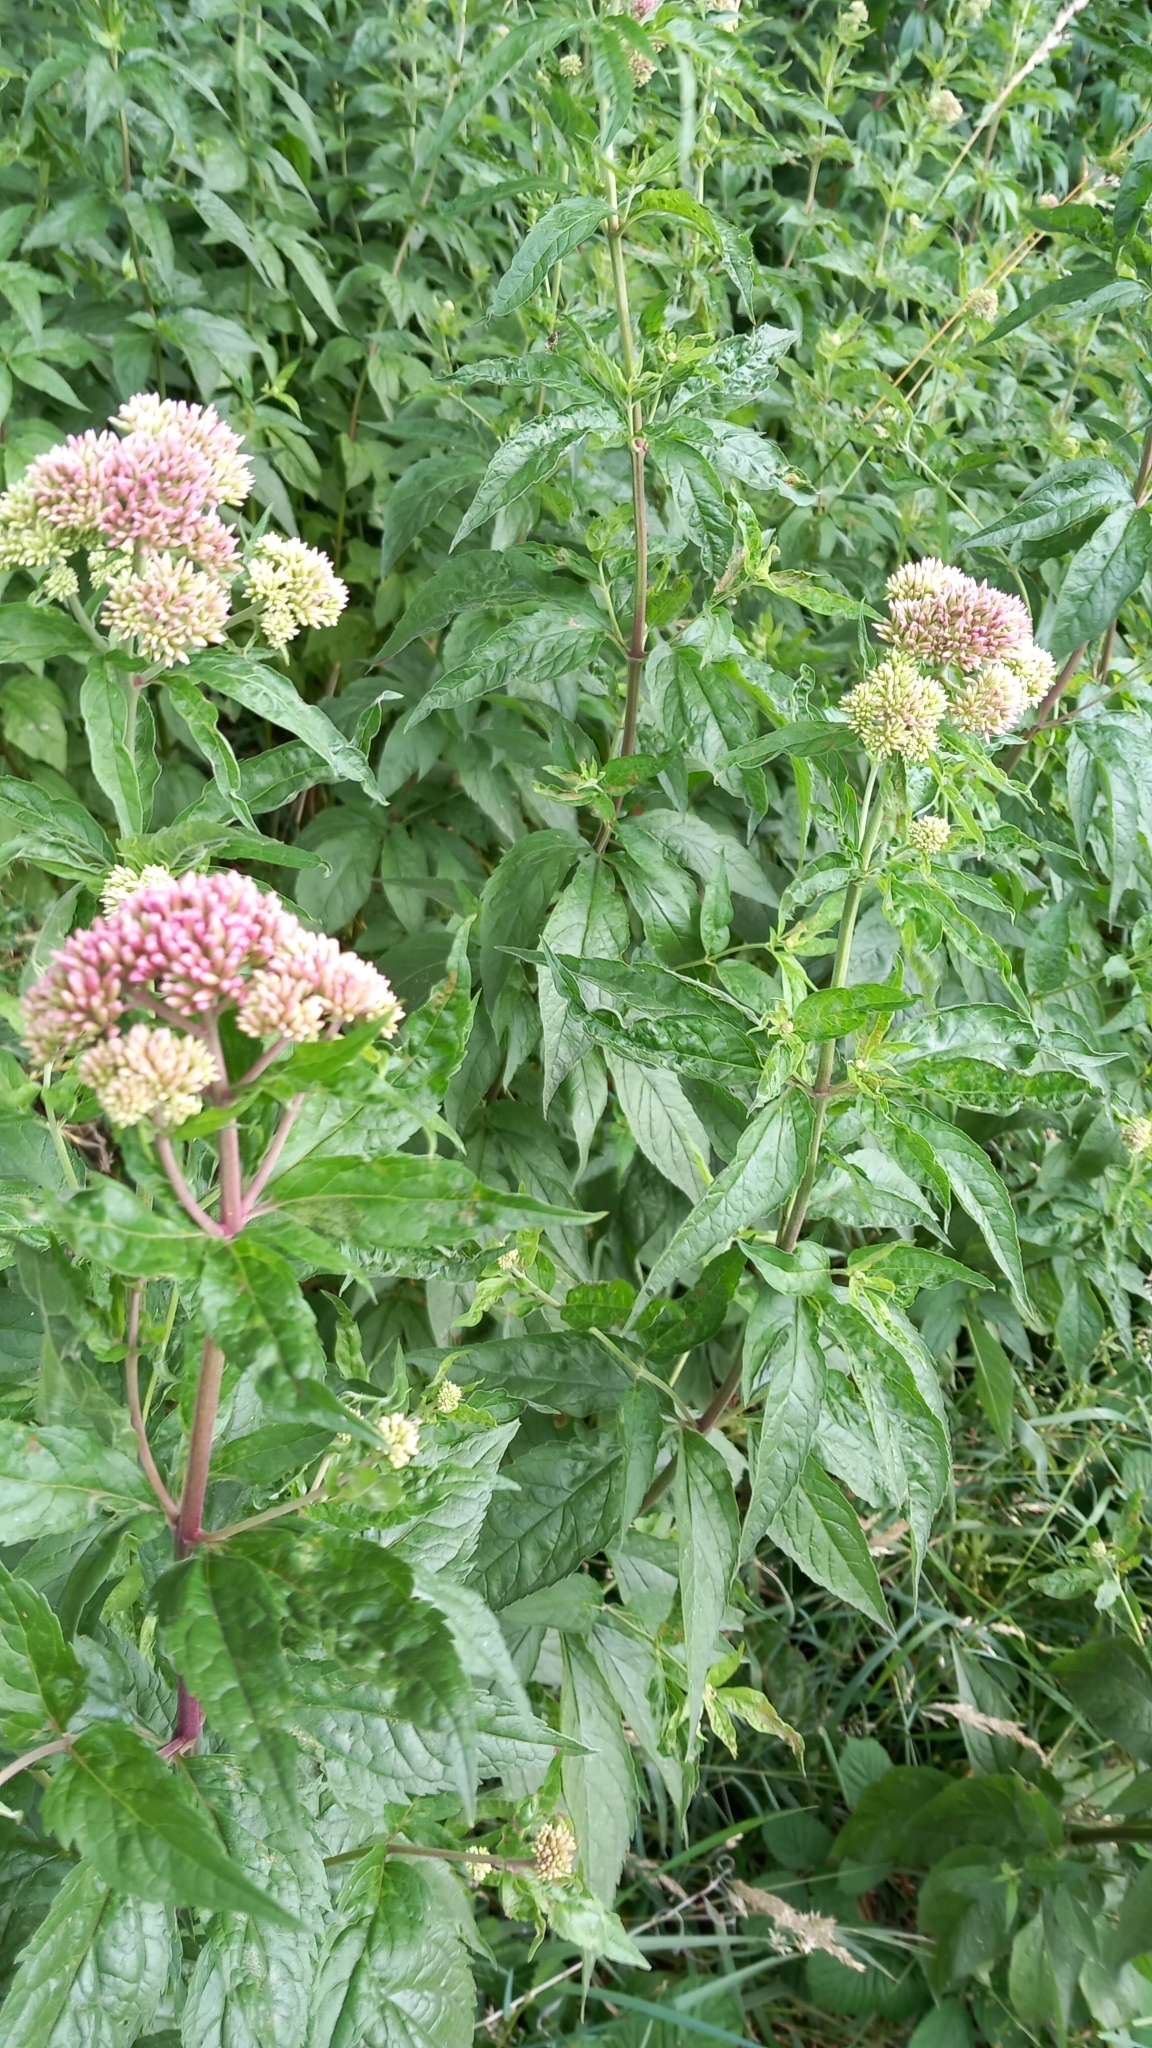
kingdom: Plantae
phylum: Tracheophyta
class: Magnoliopsida
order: Asterales
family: Asteraceae
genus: Eupatorium
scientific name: Eupatorium cannabinum
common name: Hemp-agrimony
